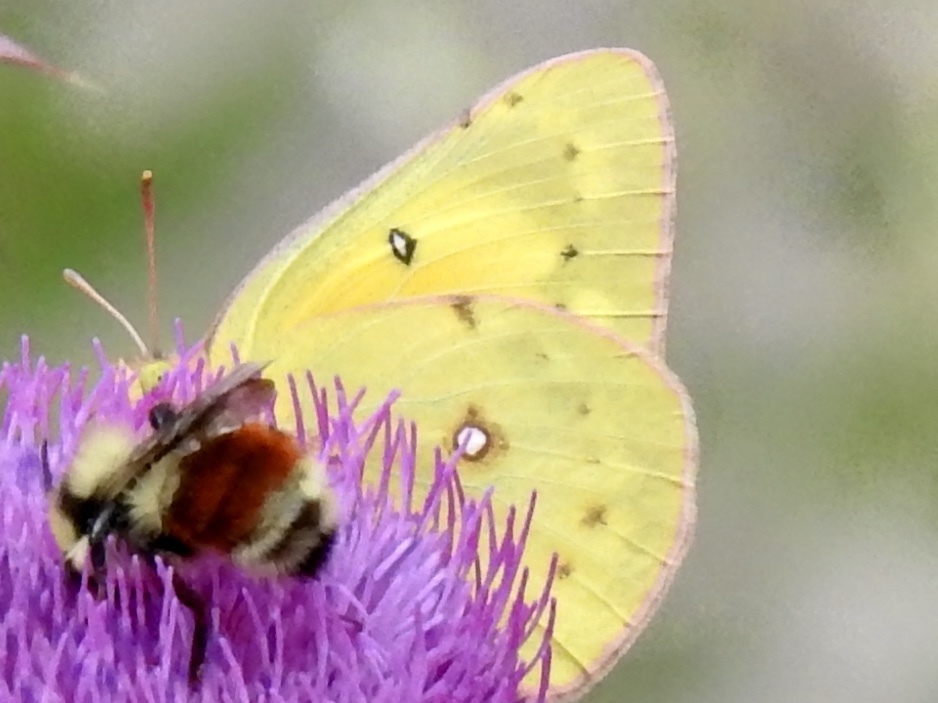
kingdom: Animalia
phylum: Arthropoda
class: Insecta
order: Lepidoptera
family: Pieridae
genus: Colias
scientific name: Colias eurytheme
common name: Alfalfa butterfly
